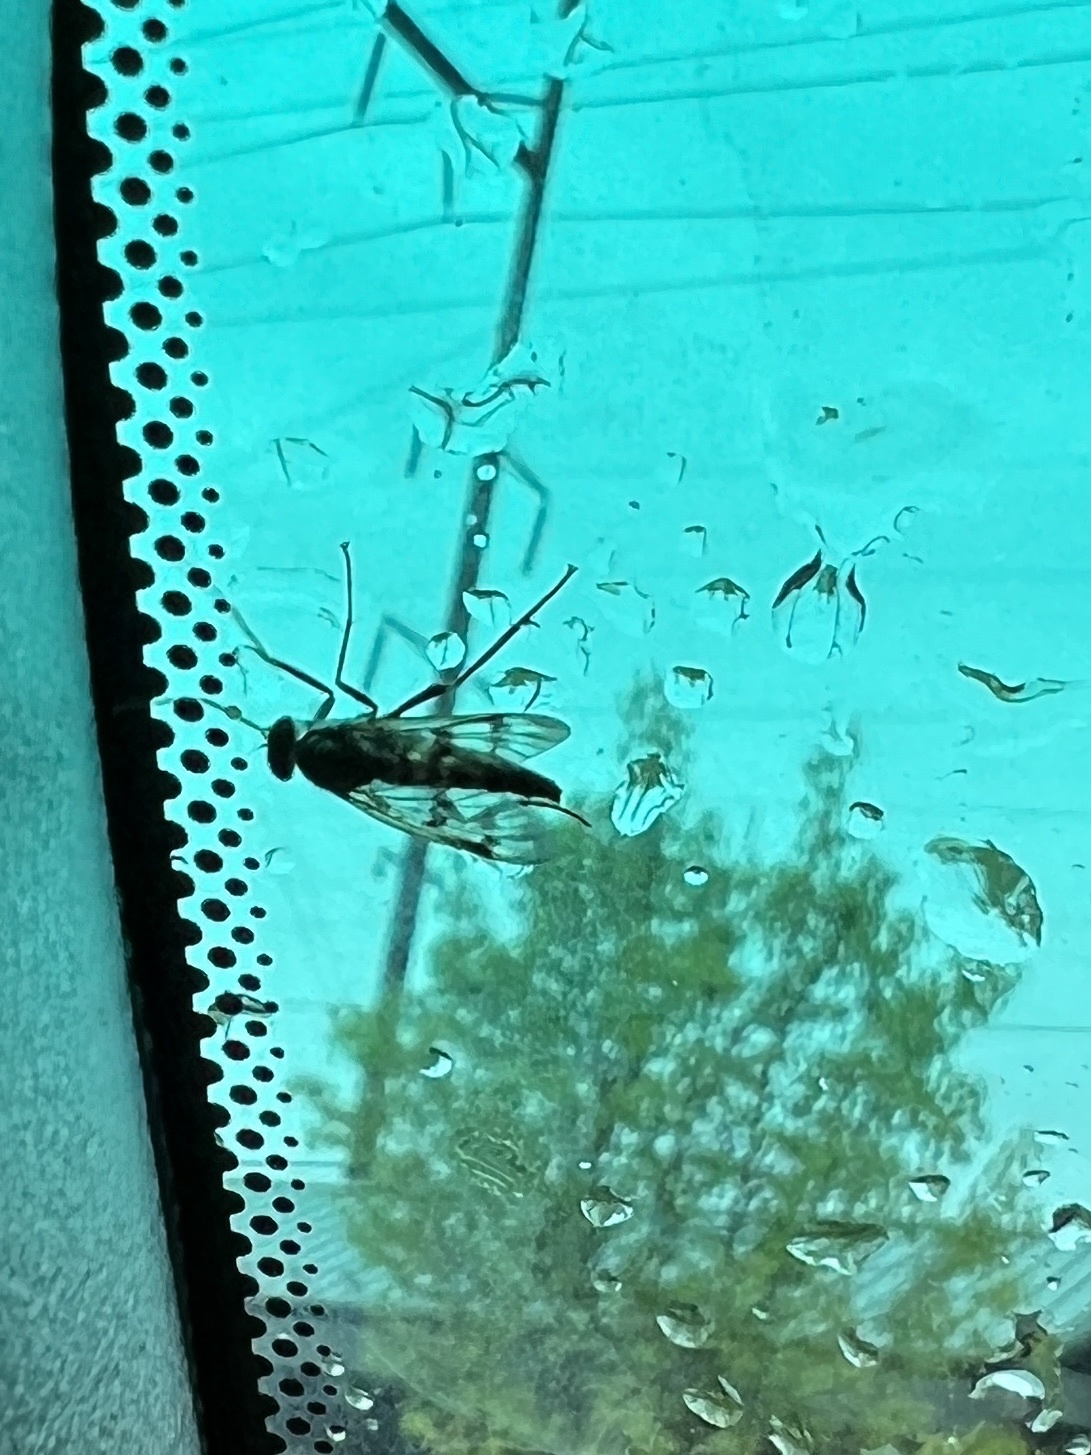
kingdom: Animalia
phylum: Arthropoda
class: Insecta
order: Diptera
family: Rhagionidae
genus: Rhagio
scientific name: Rhagio mystaceus
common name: Common snipe fly
